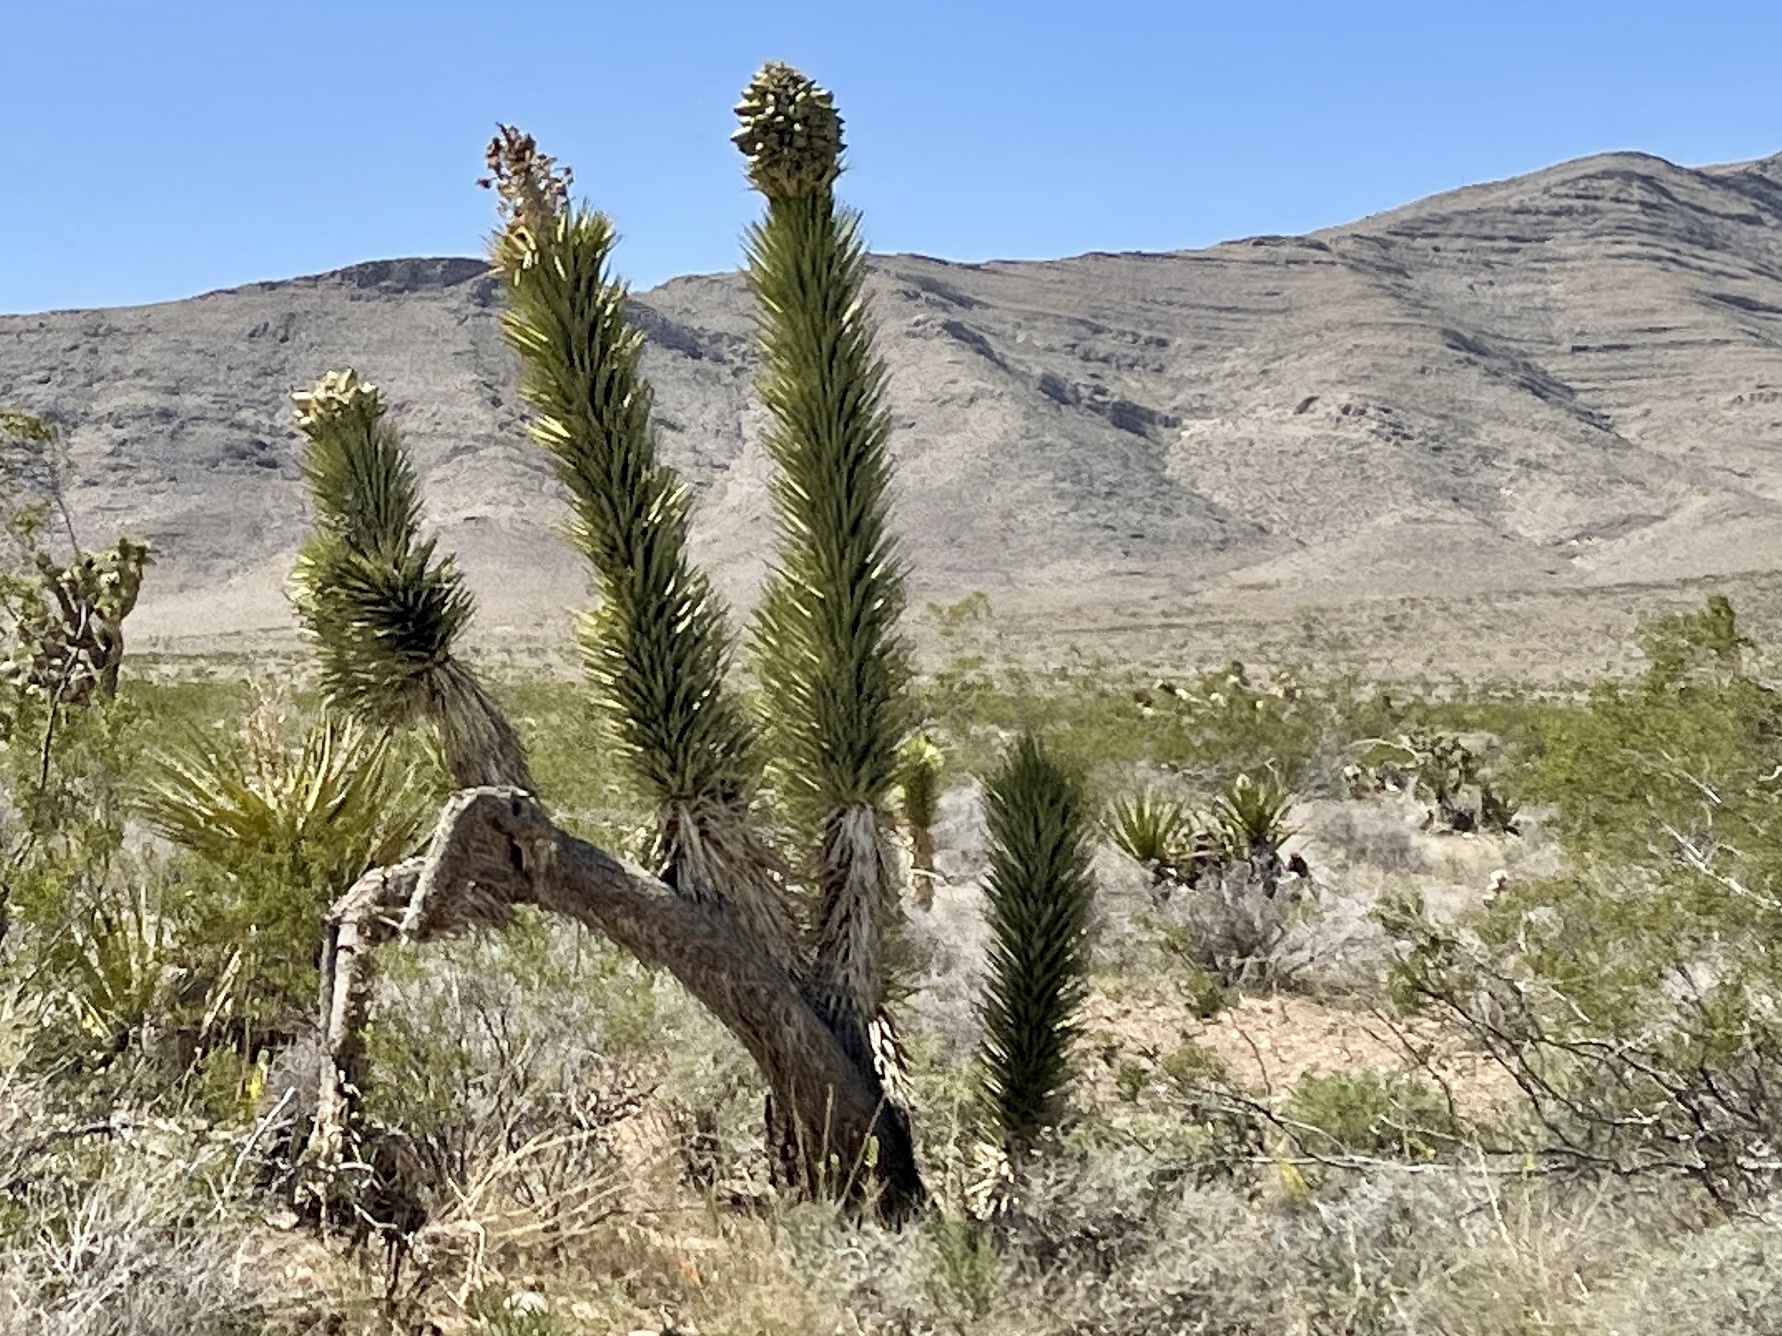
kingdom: Plantae
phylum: Tracheophyta
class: Liliopsida
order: Asparagales
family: Asparagaceae
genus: Yucca
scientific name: Yucca brevifolia
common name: Joshua tree
